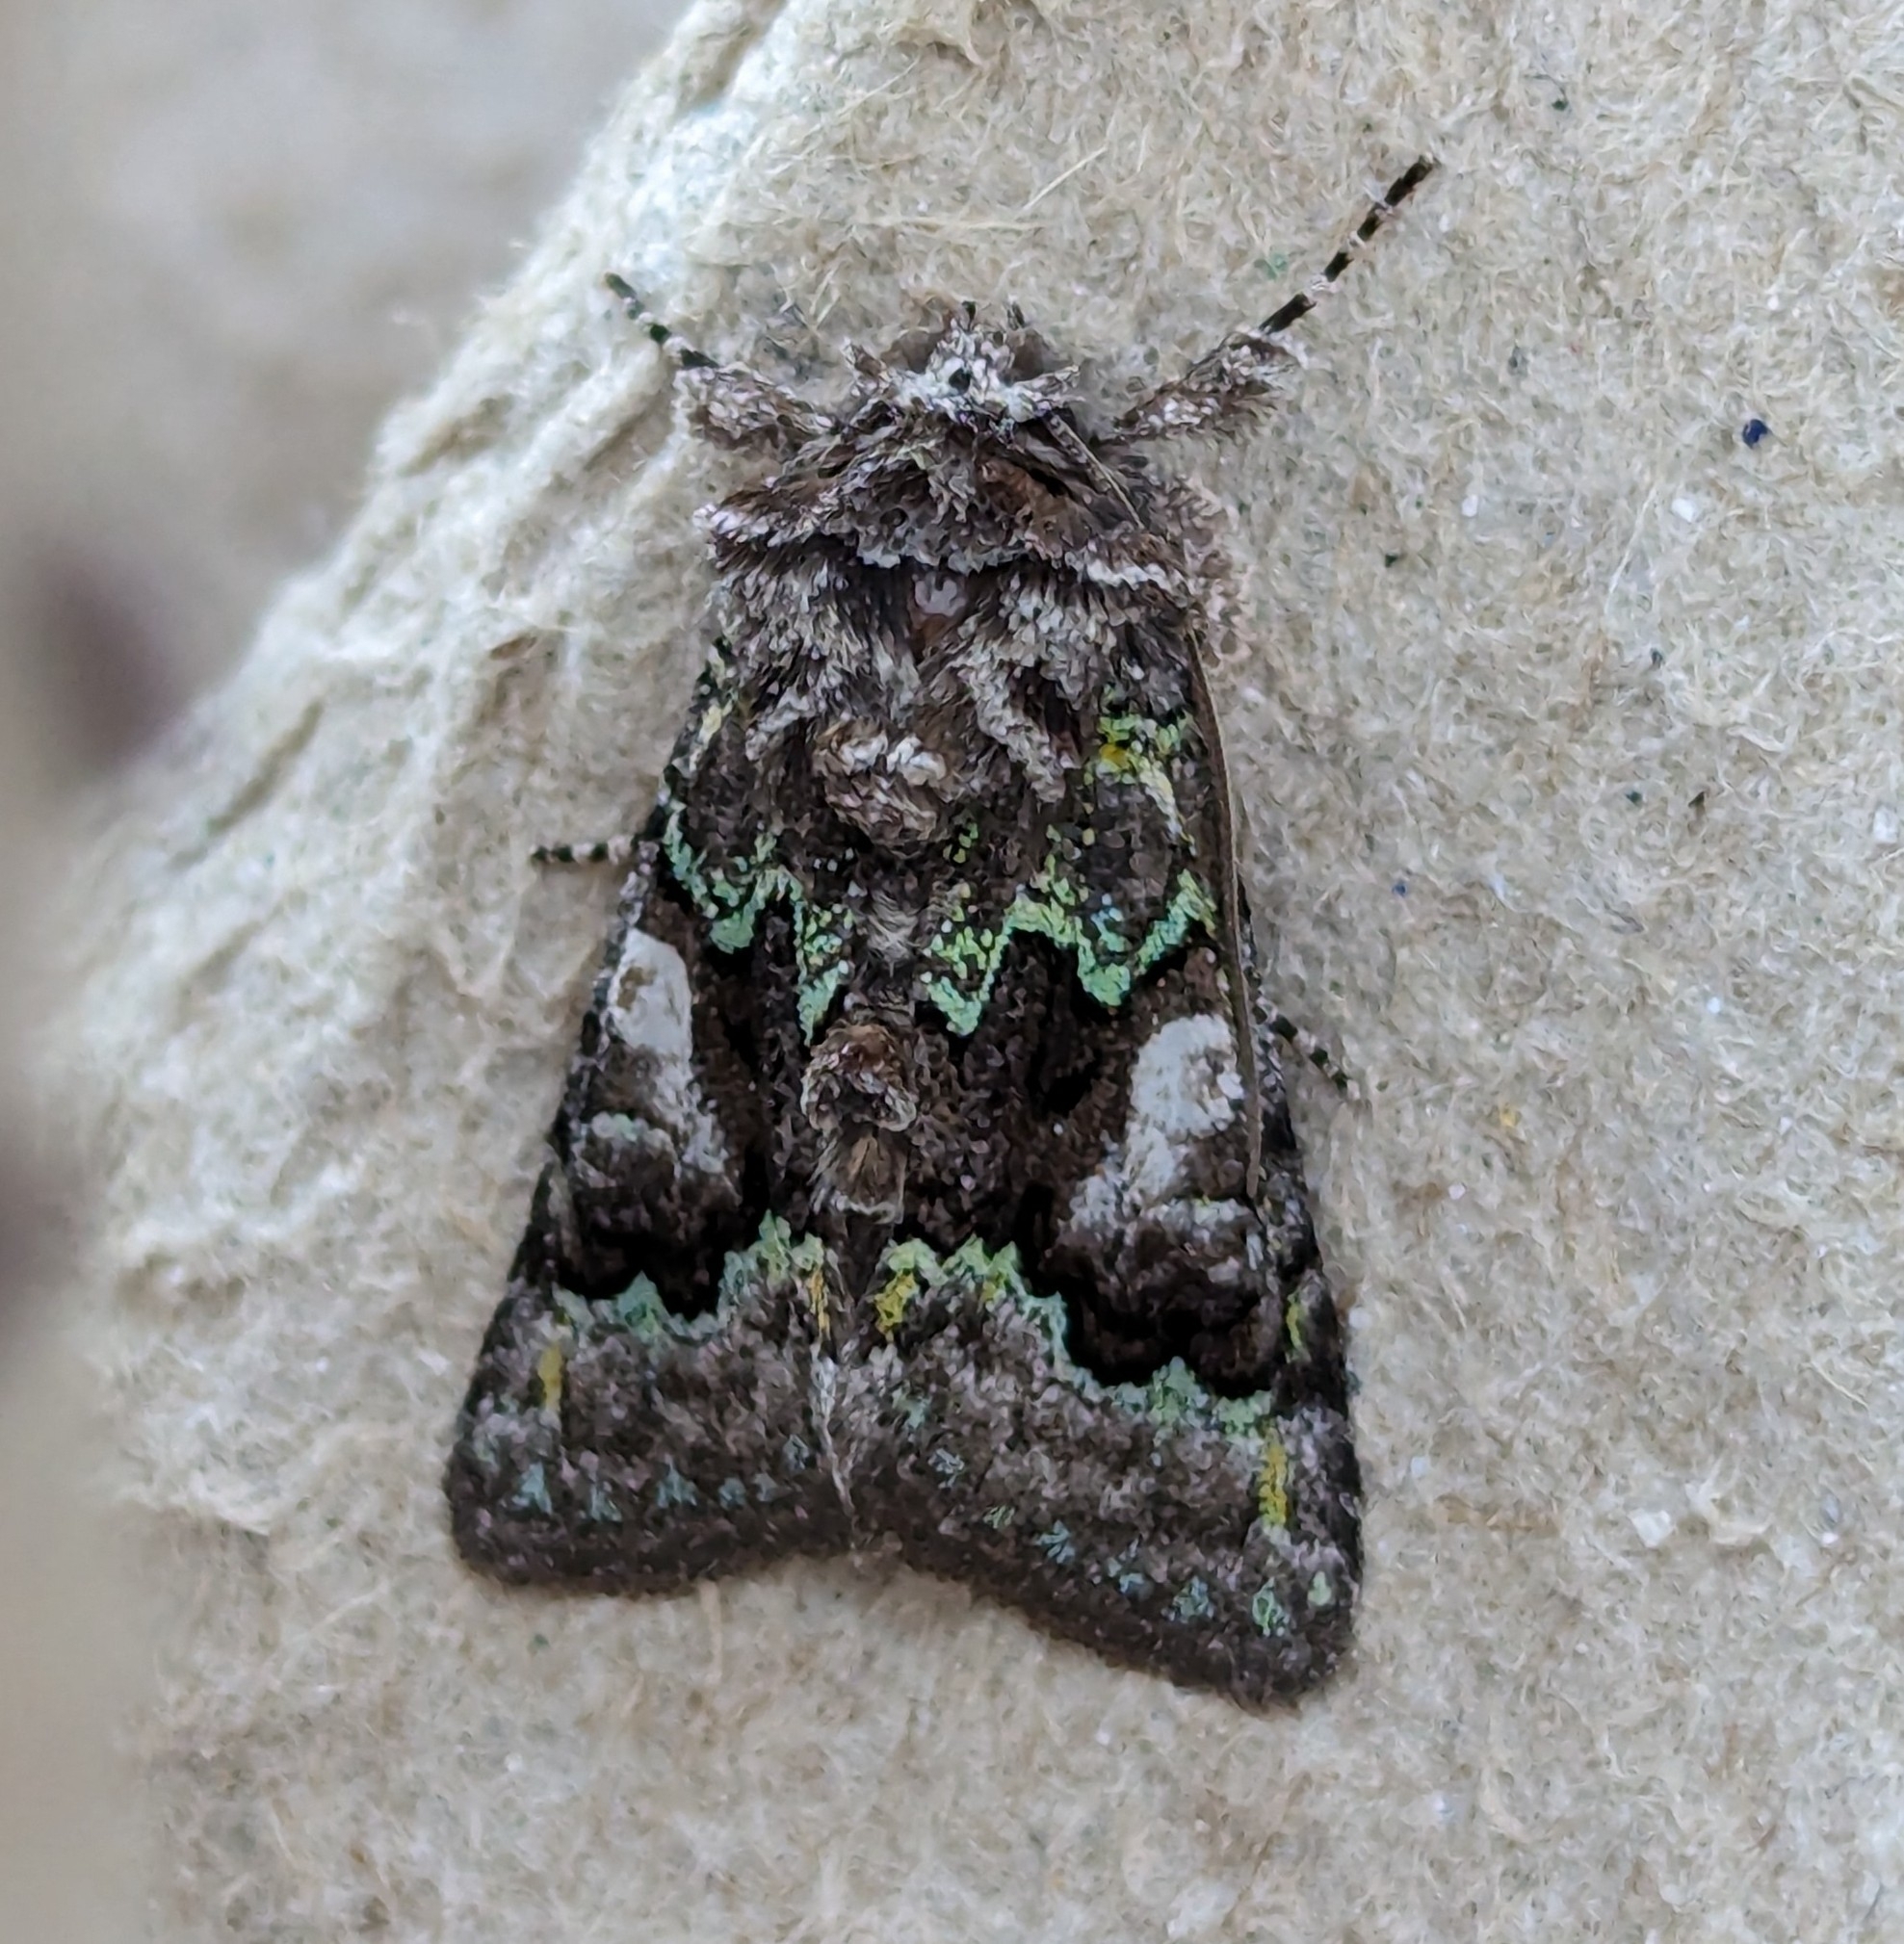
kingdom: Animalia
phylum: Arthropoda
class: Insecta
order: Lepidoptera
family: Noctuidae
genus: Behrensia
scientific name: Behrensia conchiformis
